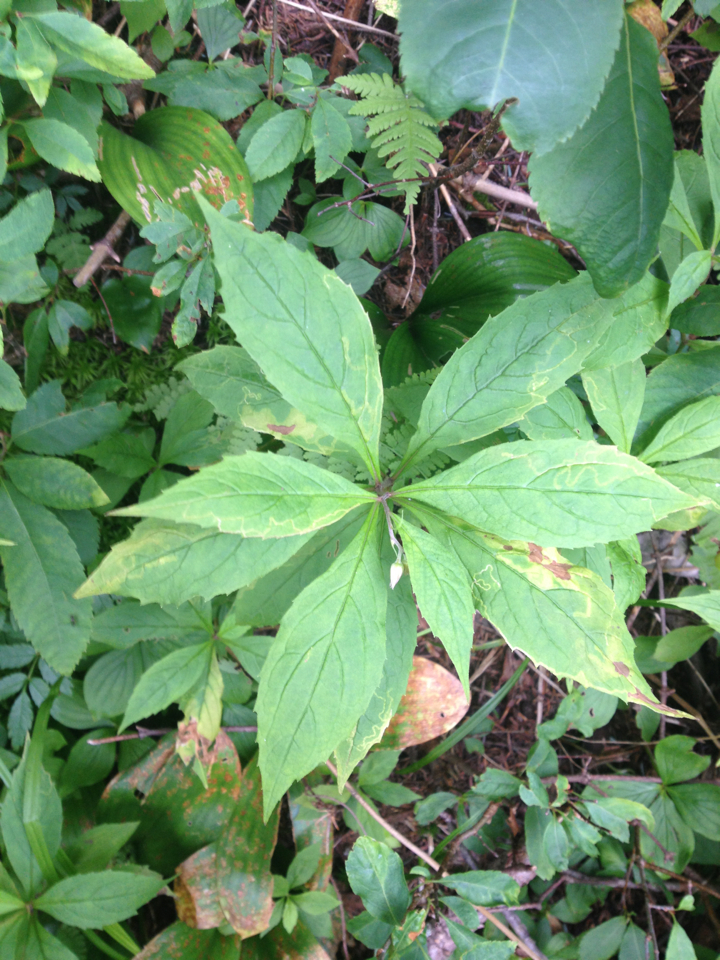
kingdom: Plantae
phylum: Tracheophyta
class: Magnoliopsida
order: Asterales
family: Asteraceae
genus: Oclemena
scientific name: Oclemena acuminata
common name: Mountain aster
